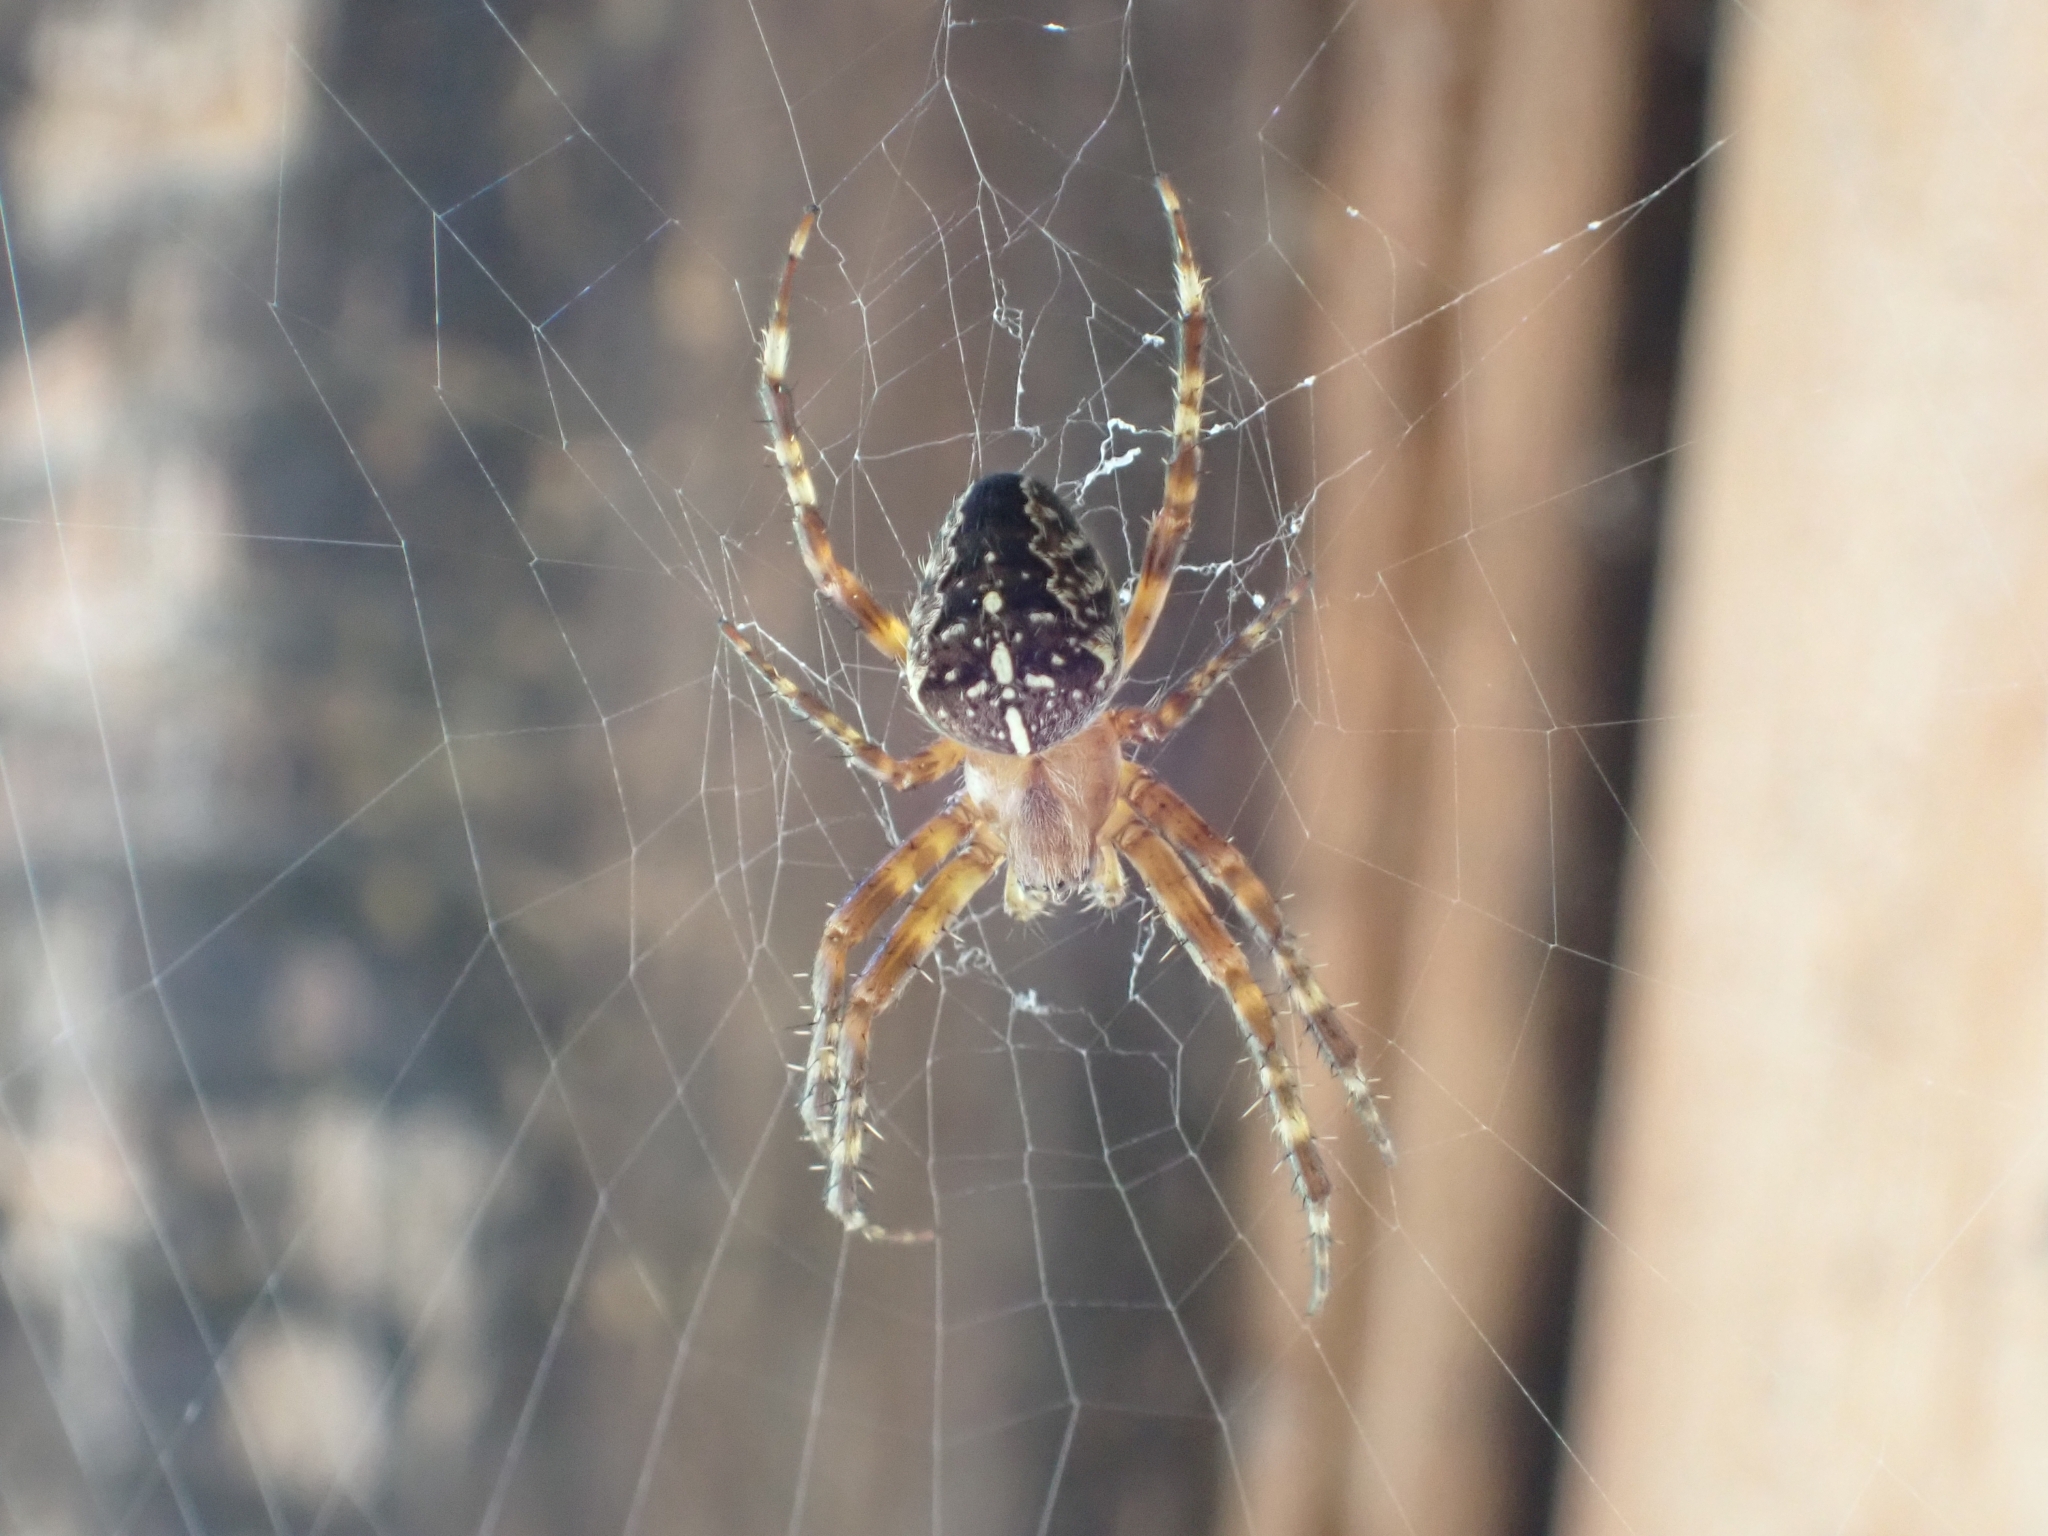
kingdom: Animalia
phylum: Arthropoda
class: Arachnida
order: Araneae
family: Araneidae
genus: Araneus
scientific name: Araneus diadematus
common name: Cross orbweaver
